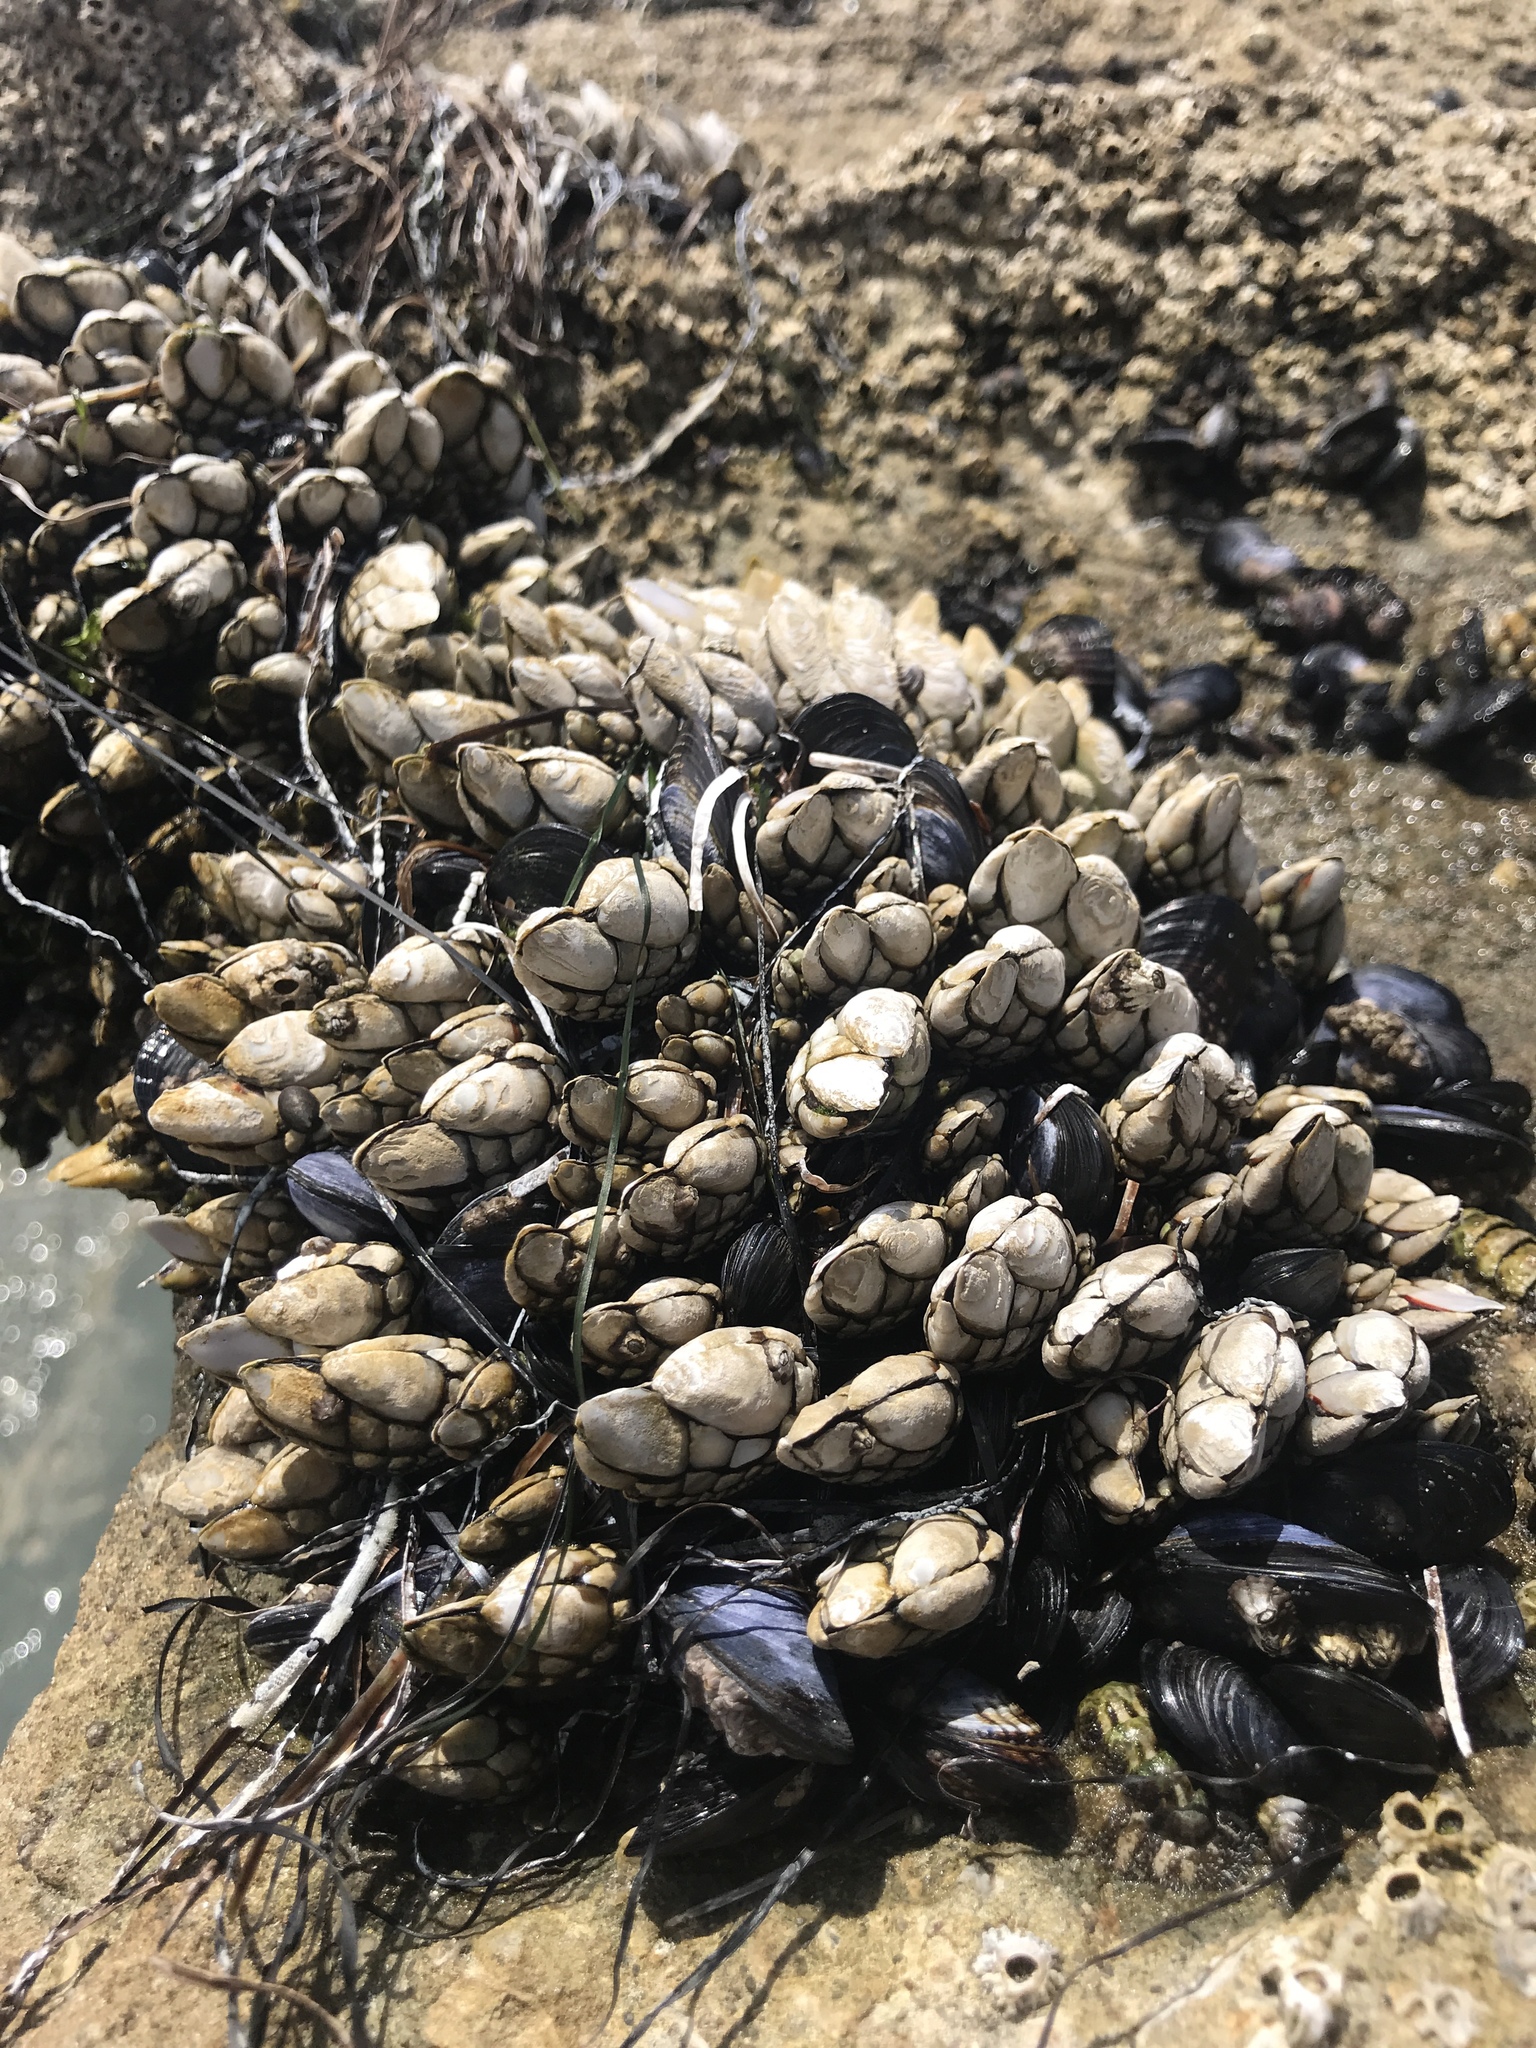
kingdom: Animalia
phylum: Arthropoda
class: Maxillopoda
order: Pedunculata
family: Pollicipedidae
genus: Pollicipes
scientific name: Pollicipes polymerus
